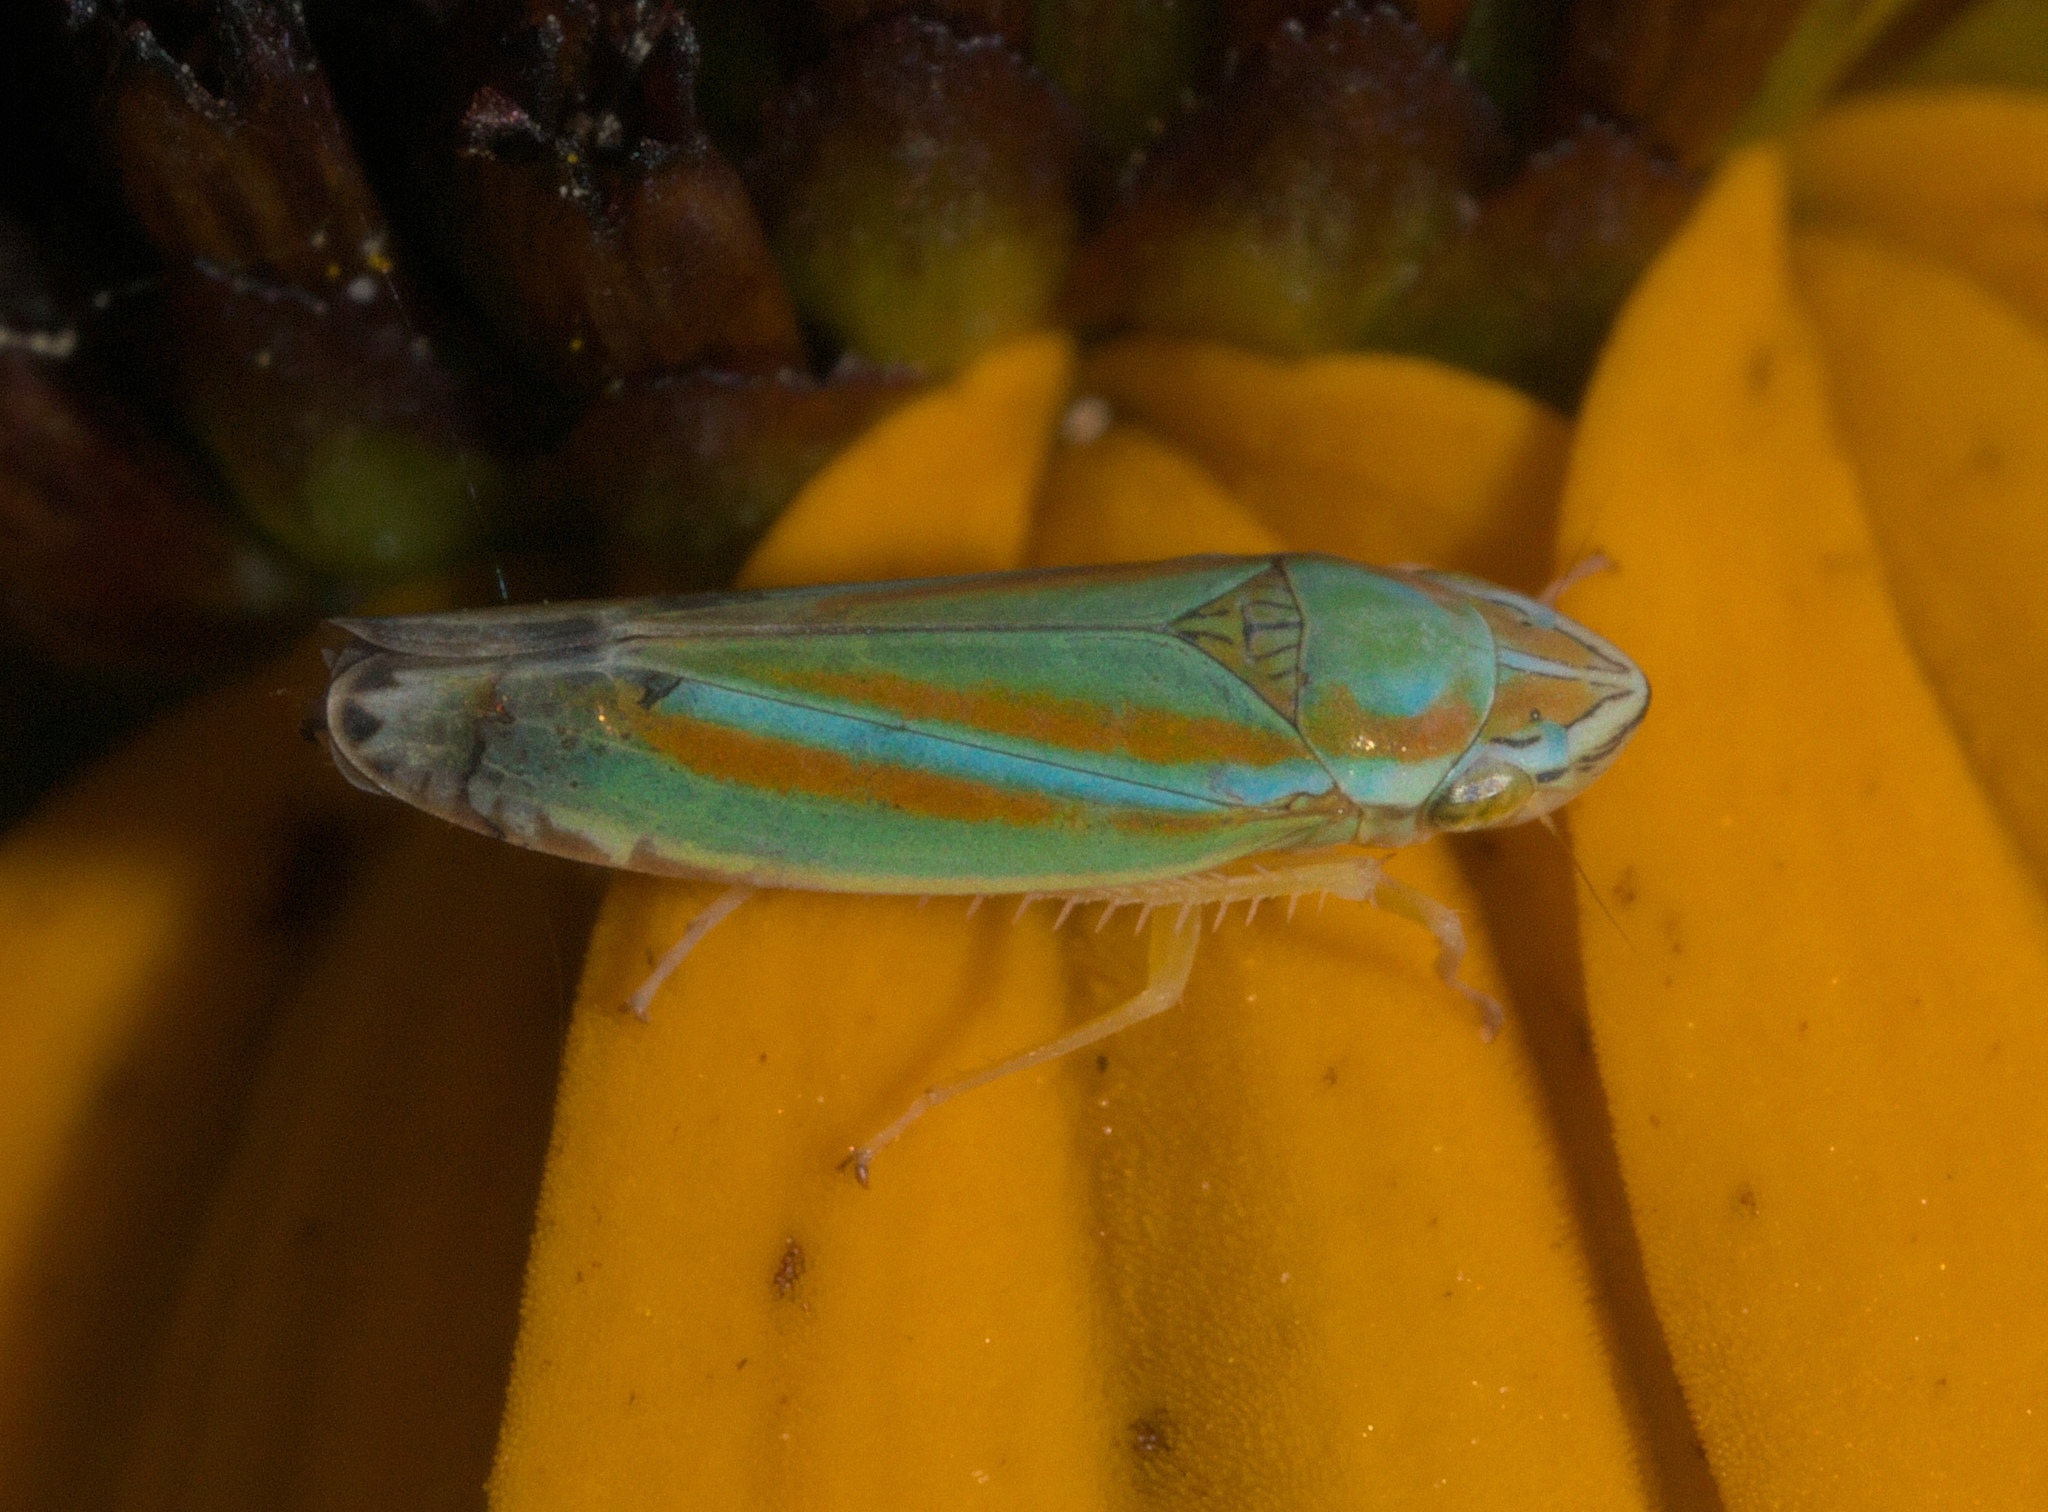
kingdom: Animalia
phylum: Arthropoda
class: Insecta
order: Hemiptera
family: Cicadellidae
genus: Graphocephala
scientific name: Graphocephala versuta
